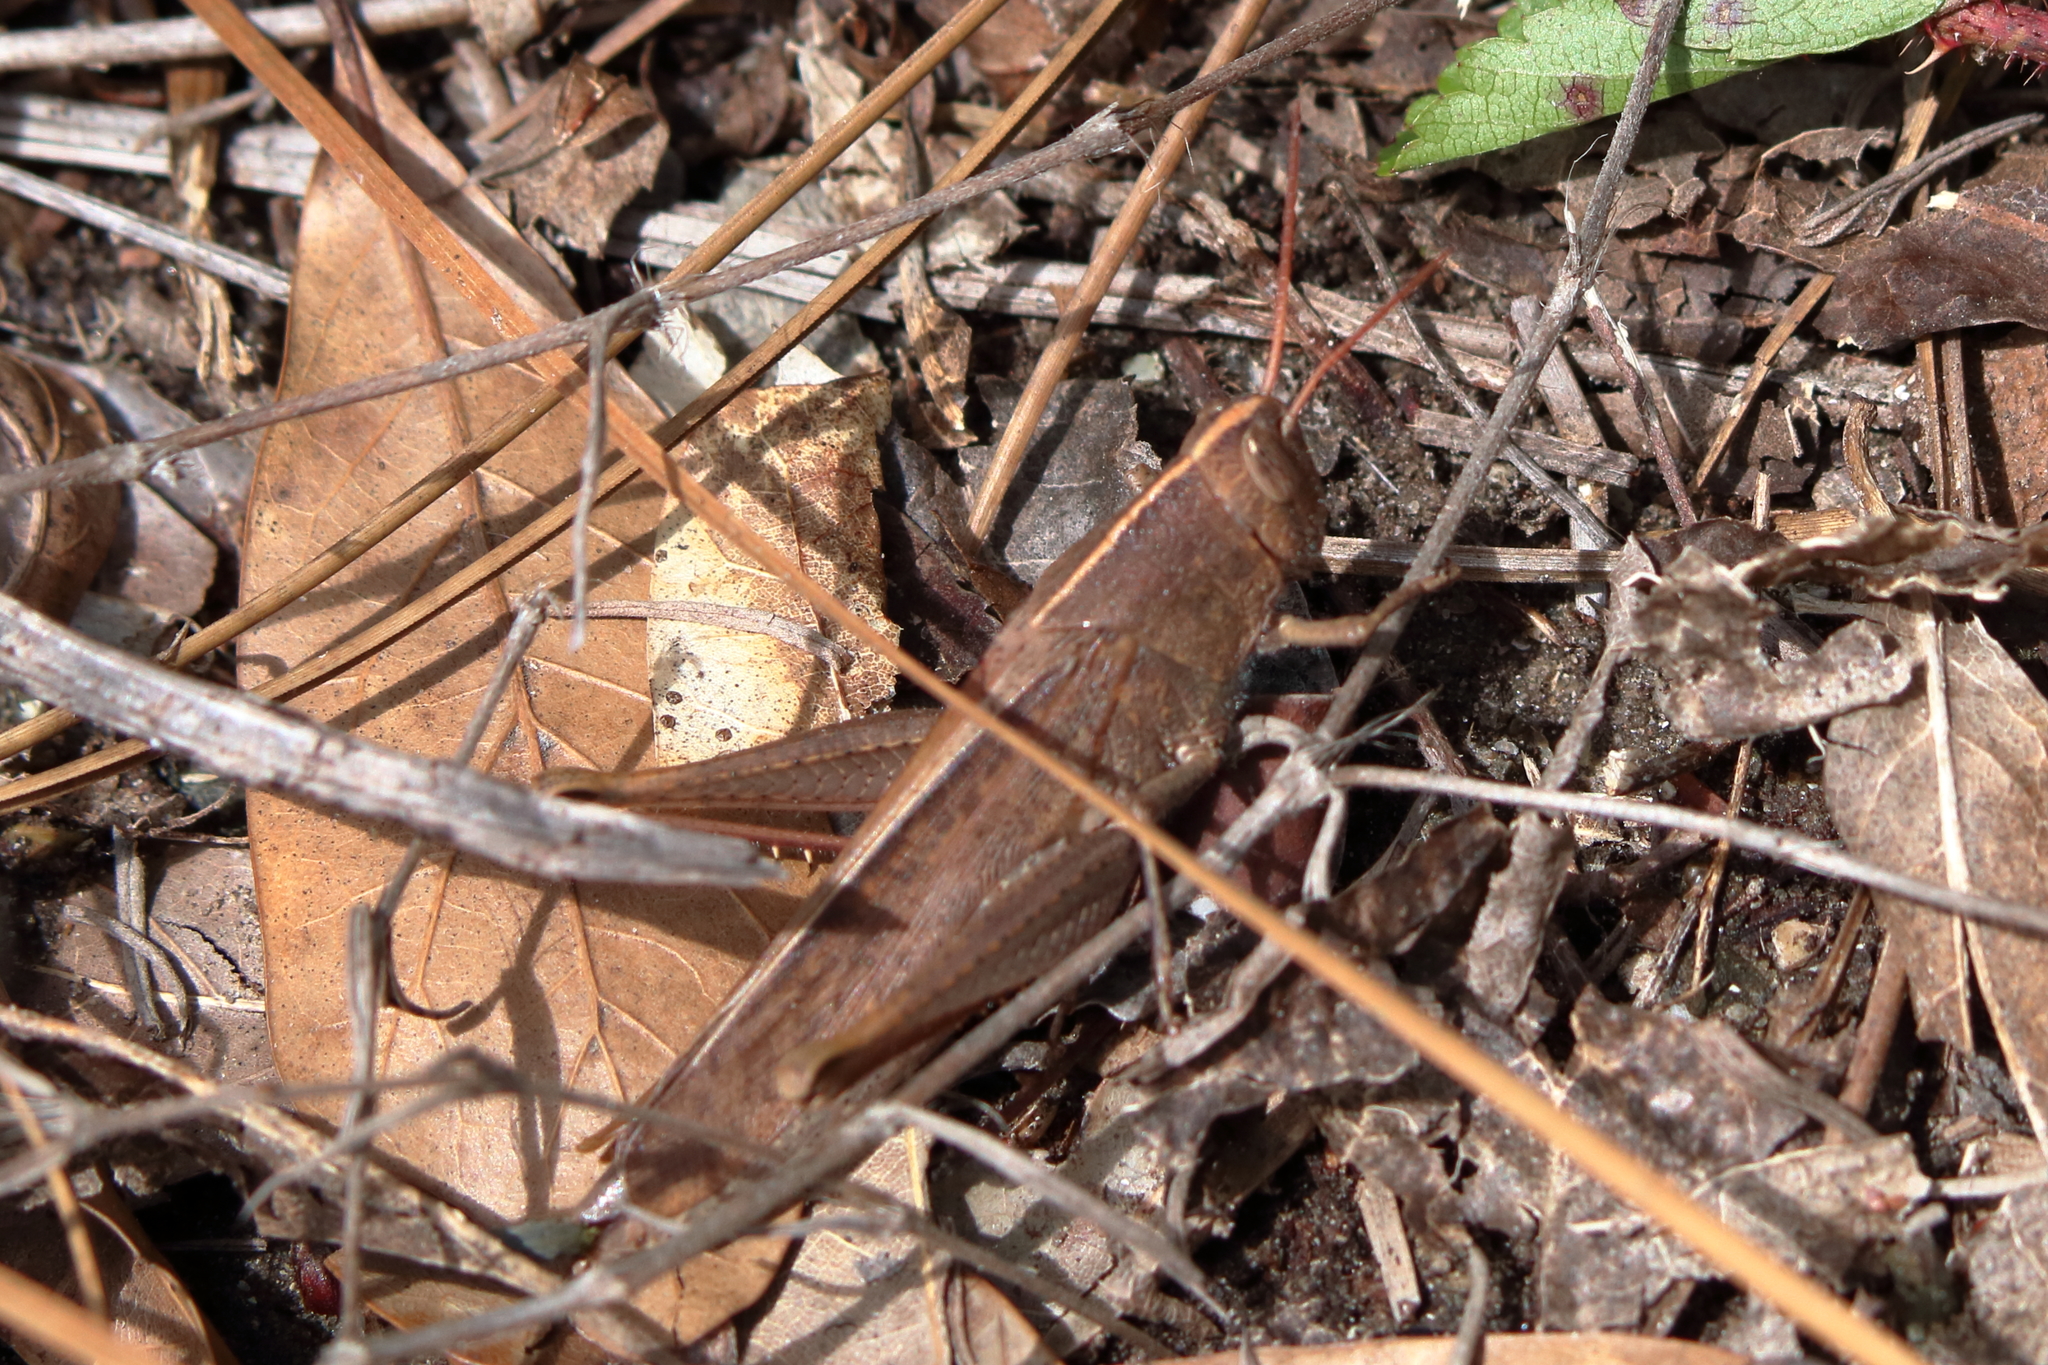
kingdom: Animalia
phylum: Arthropoda
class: Insecta
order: Orthoptera
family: Acrididae
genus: Schistocerca
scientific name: Schistocerca damnifica
